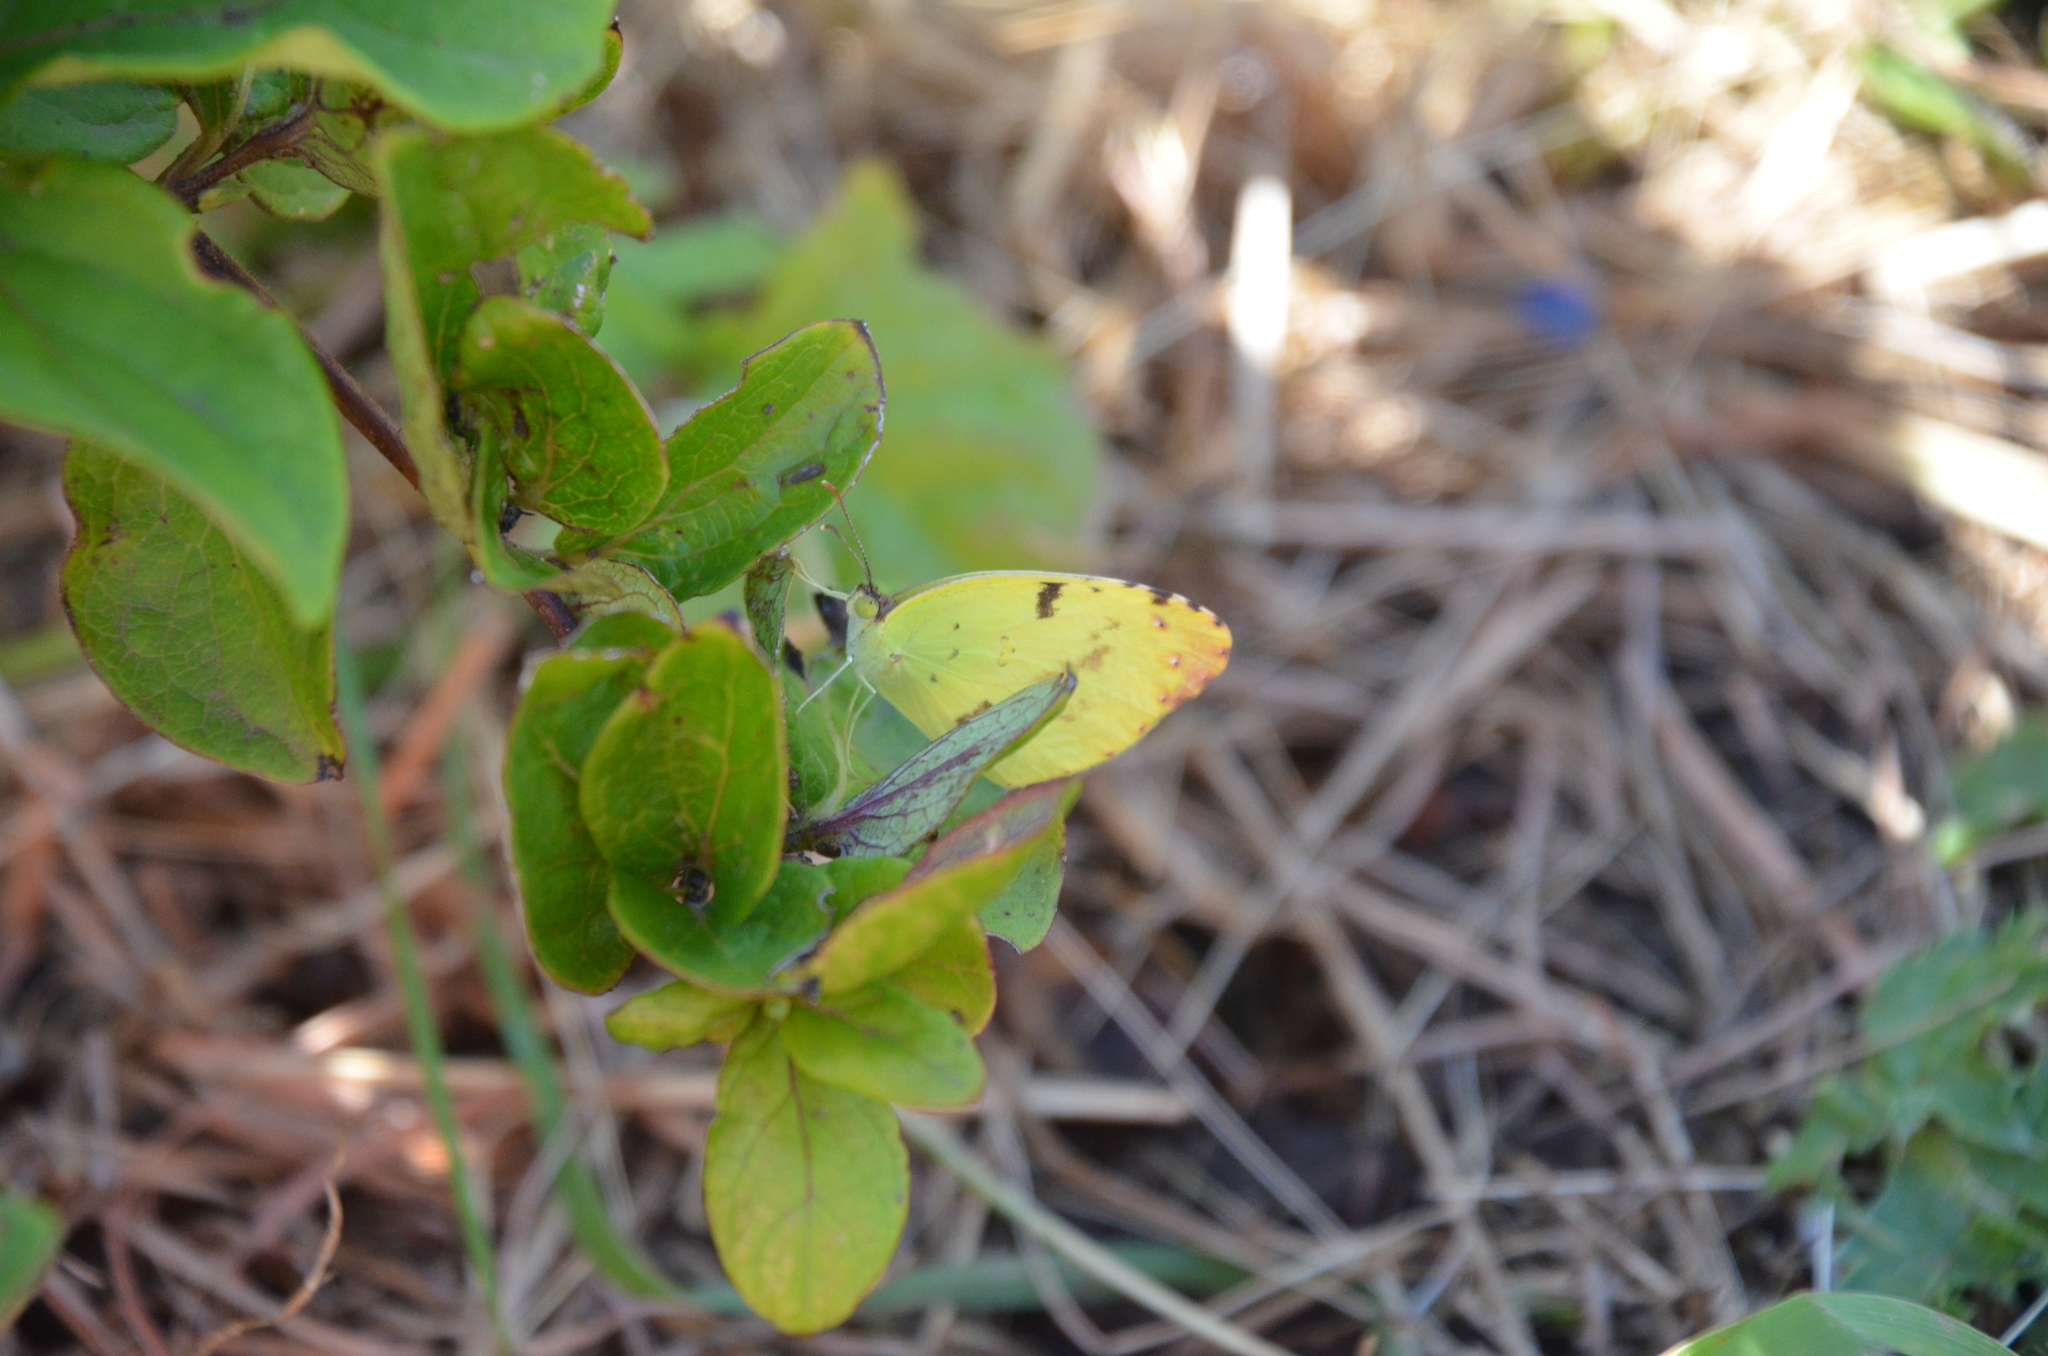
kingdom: Animalia
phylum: Arthropoda
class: Insecta
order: Lepidoptera
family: Pieridae
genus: Teriocolias
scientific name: Teriocolias
